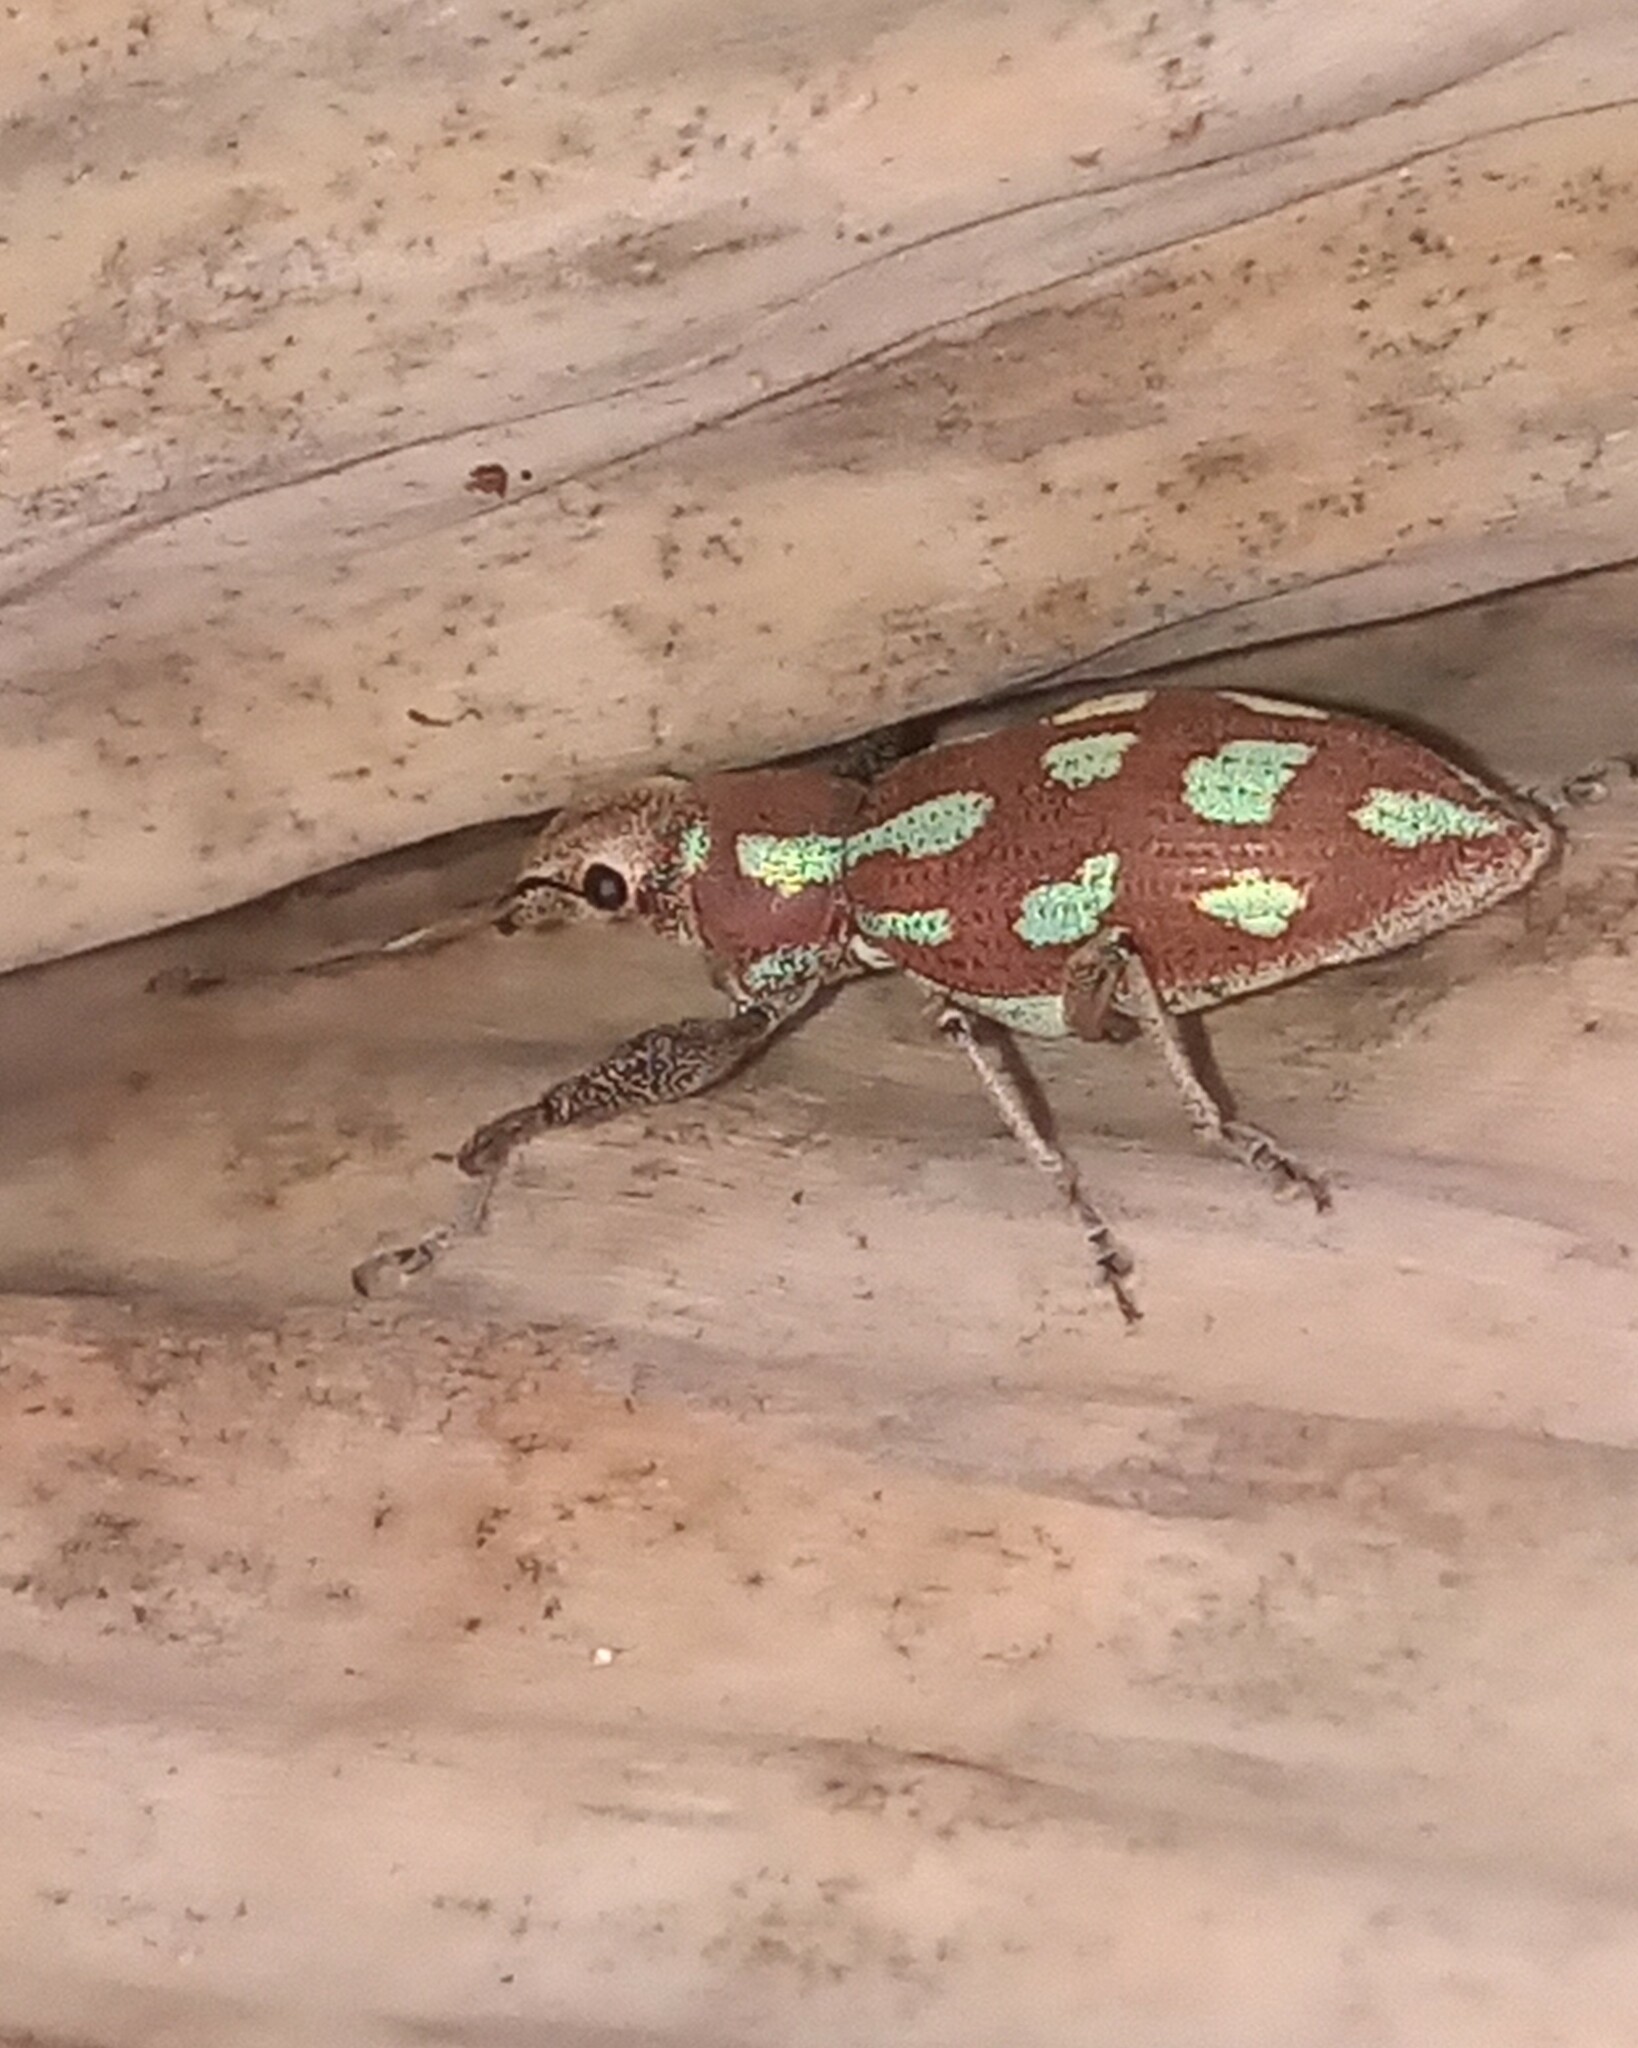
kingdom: Animalia
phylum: Arthropoda
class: Insecta
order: Coleoptera
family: Curculionidae
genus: Naupactus
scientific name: Naupactus bellus
